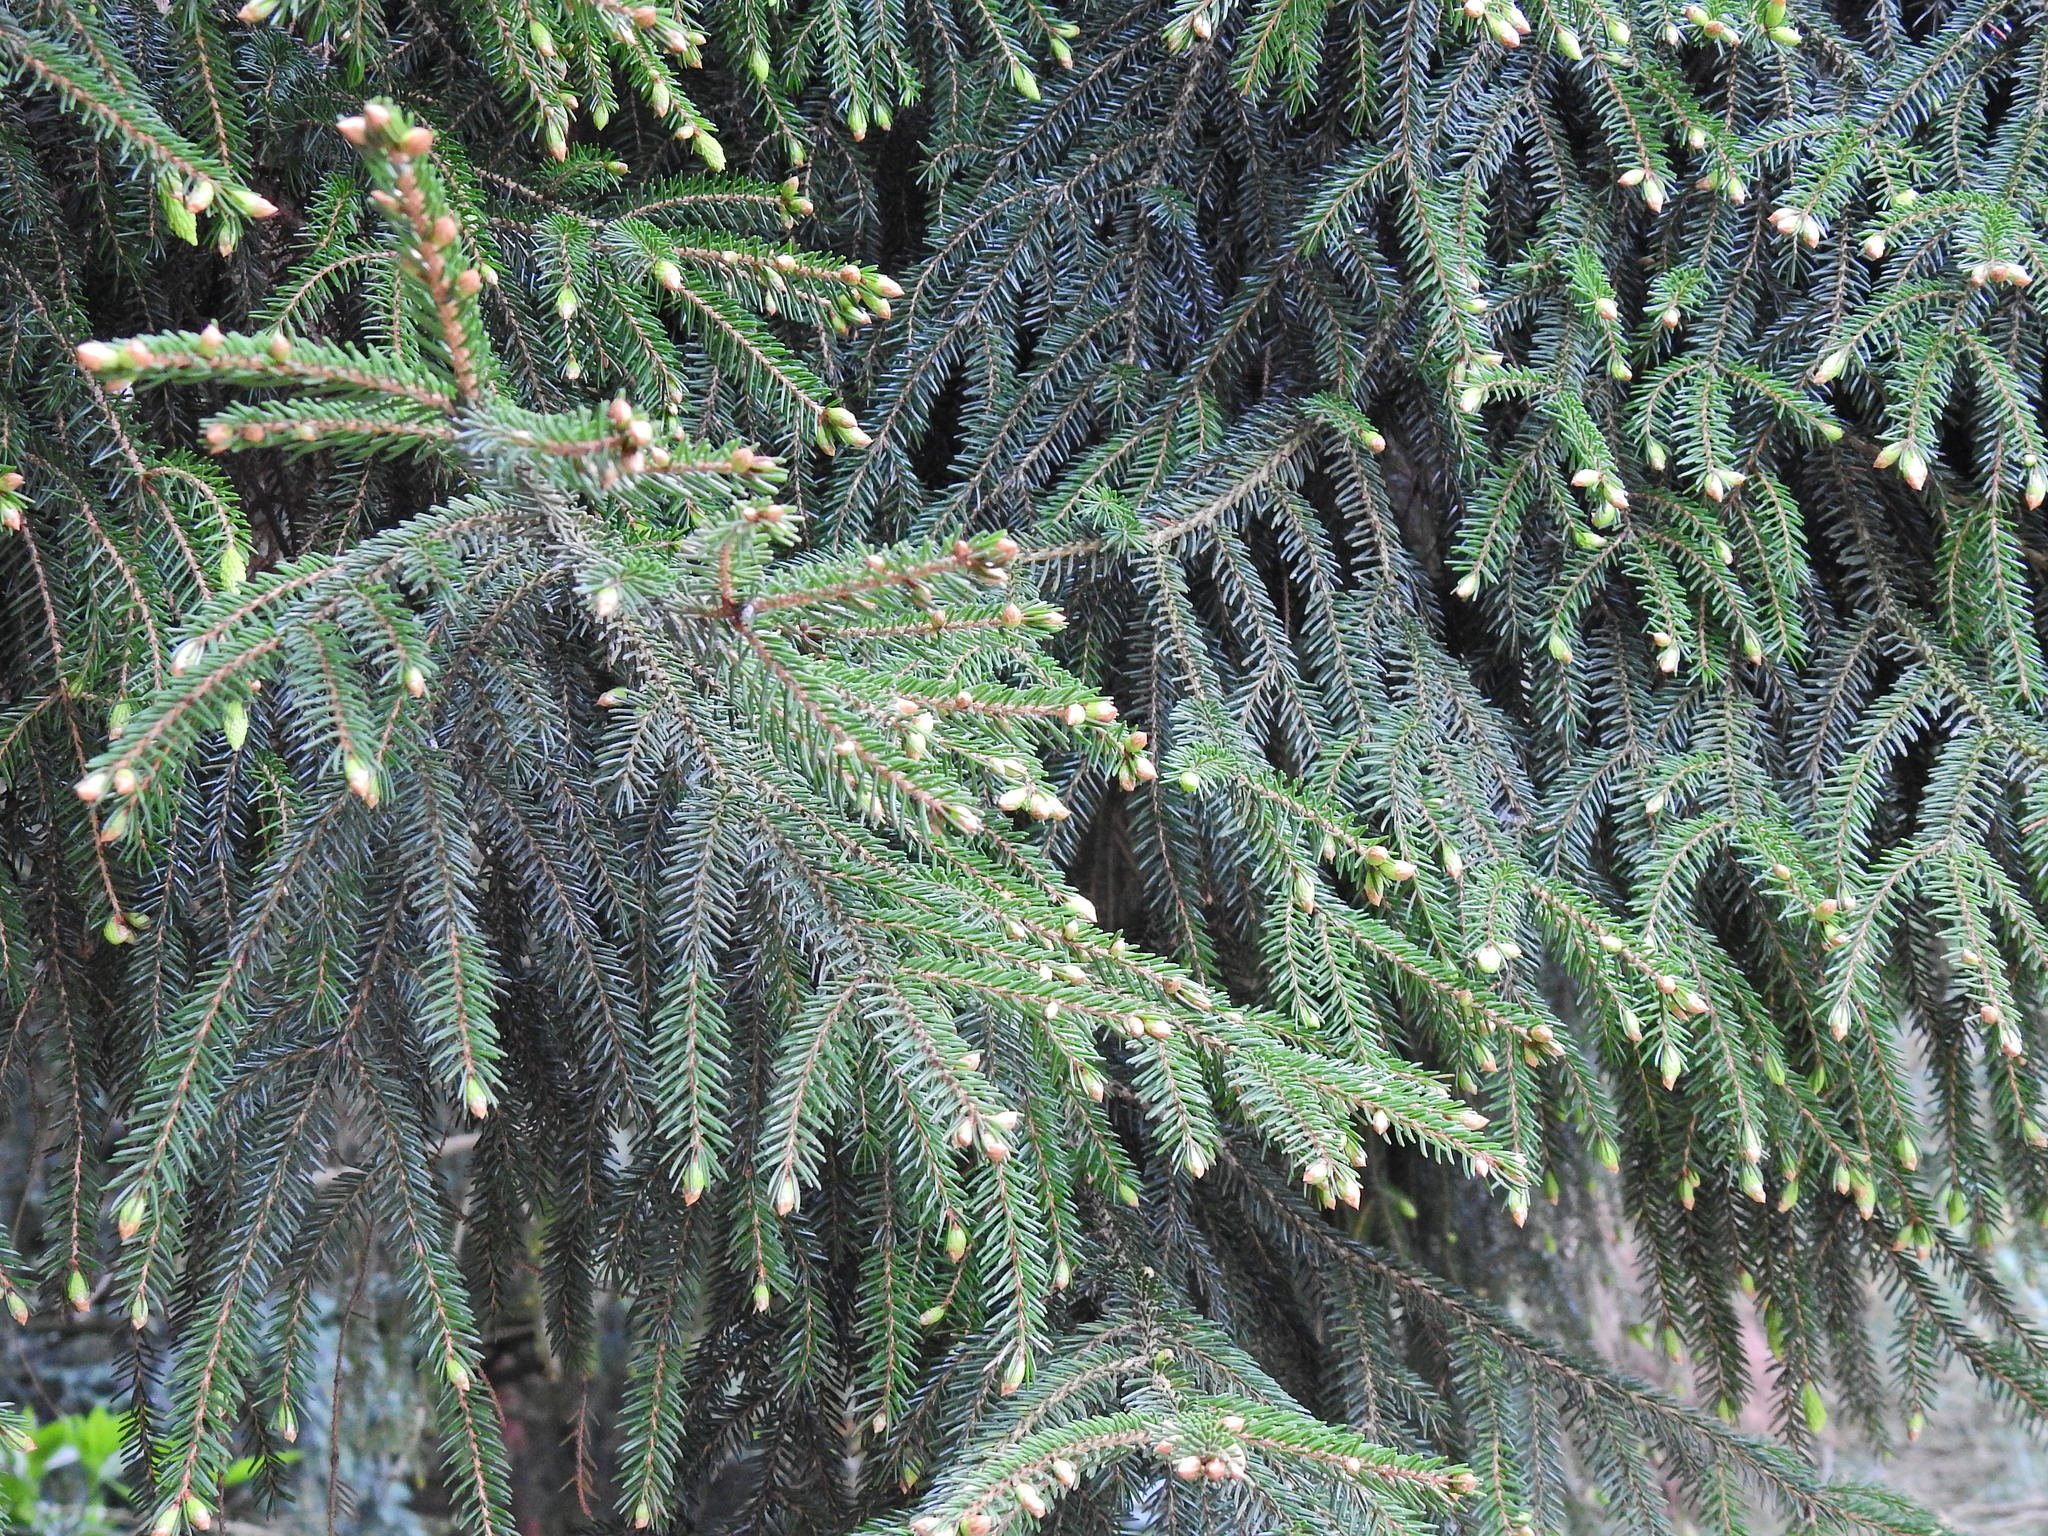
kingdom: Plantae
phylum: Tracheophyta
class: Pinopsida
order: Pinales
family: Pinaceae
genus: Picea
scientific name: Picea abies
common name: Norway spruce
